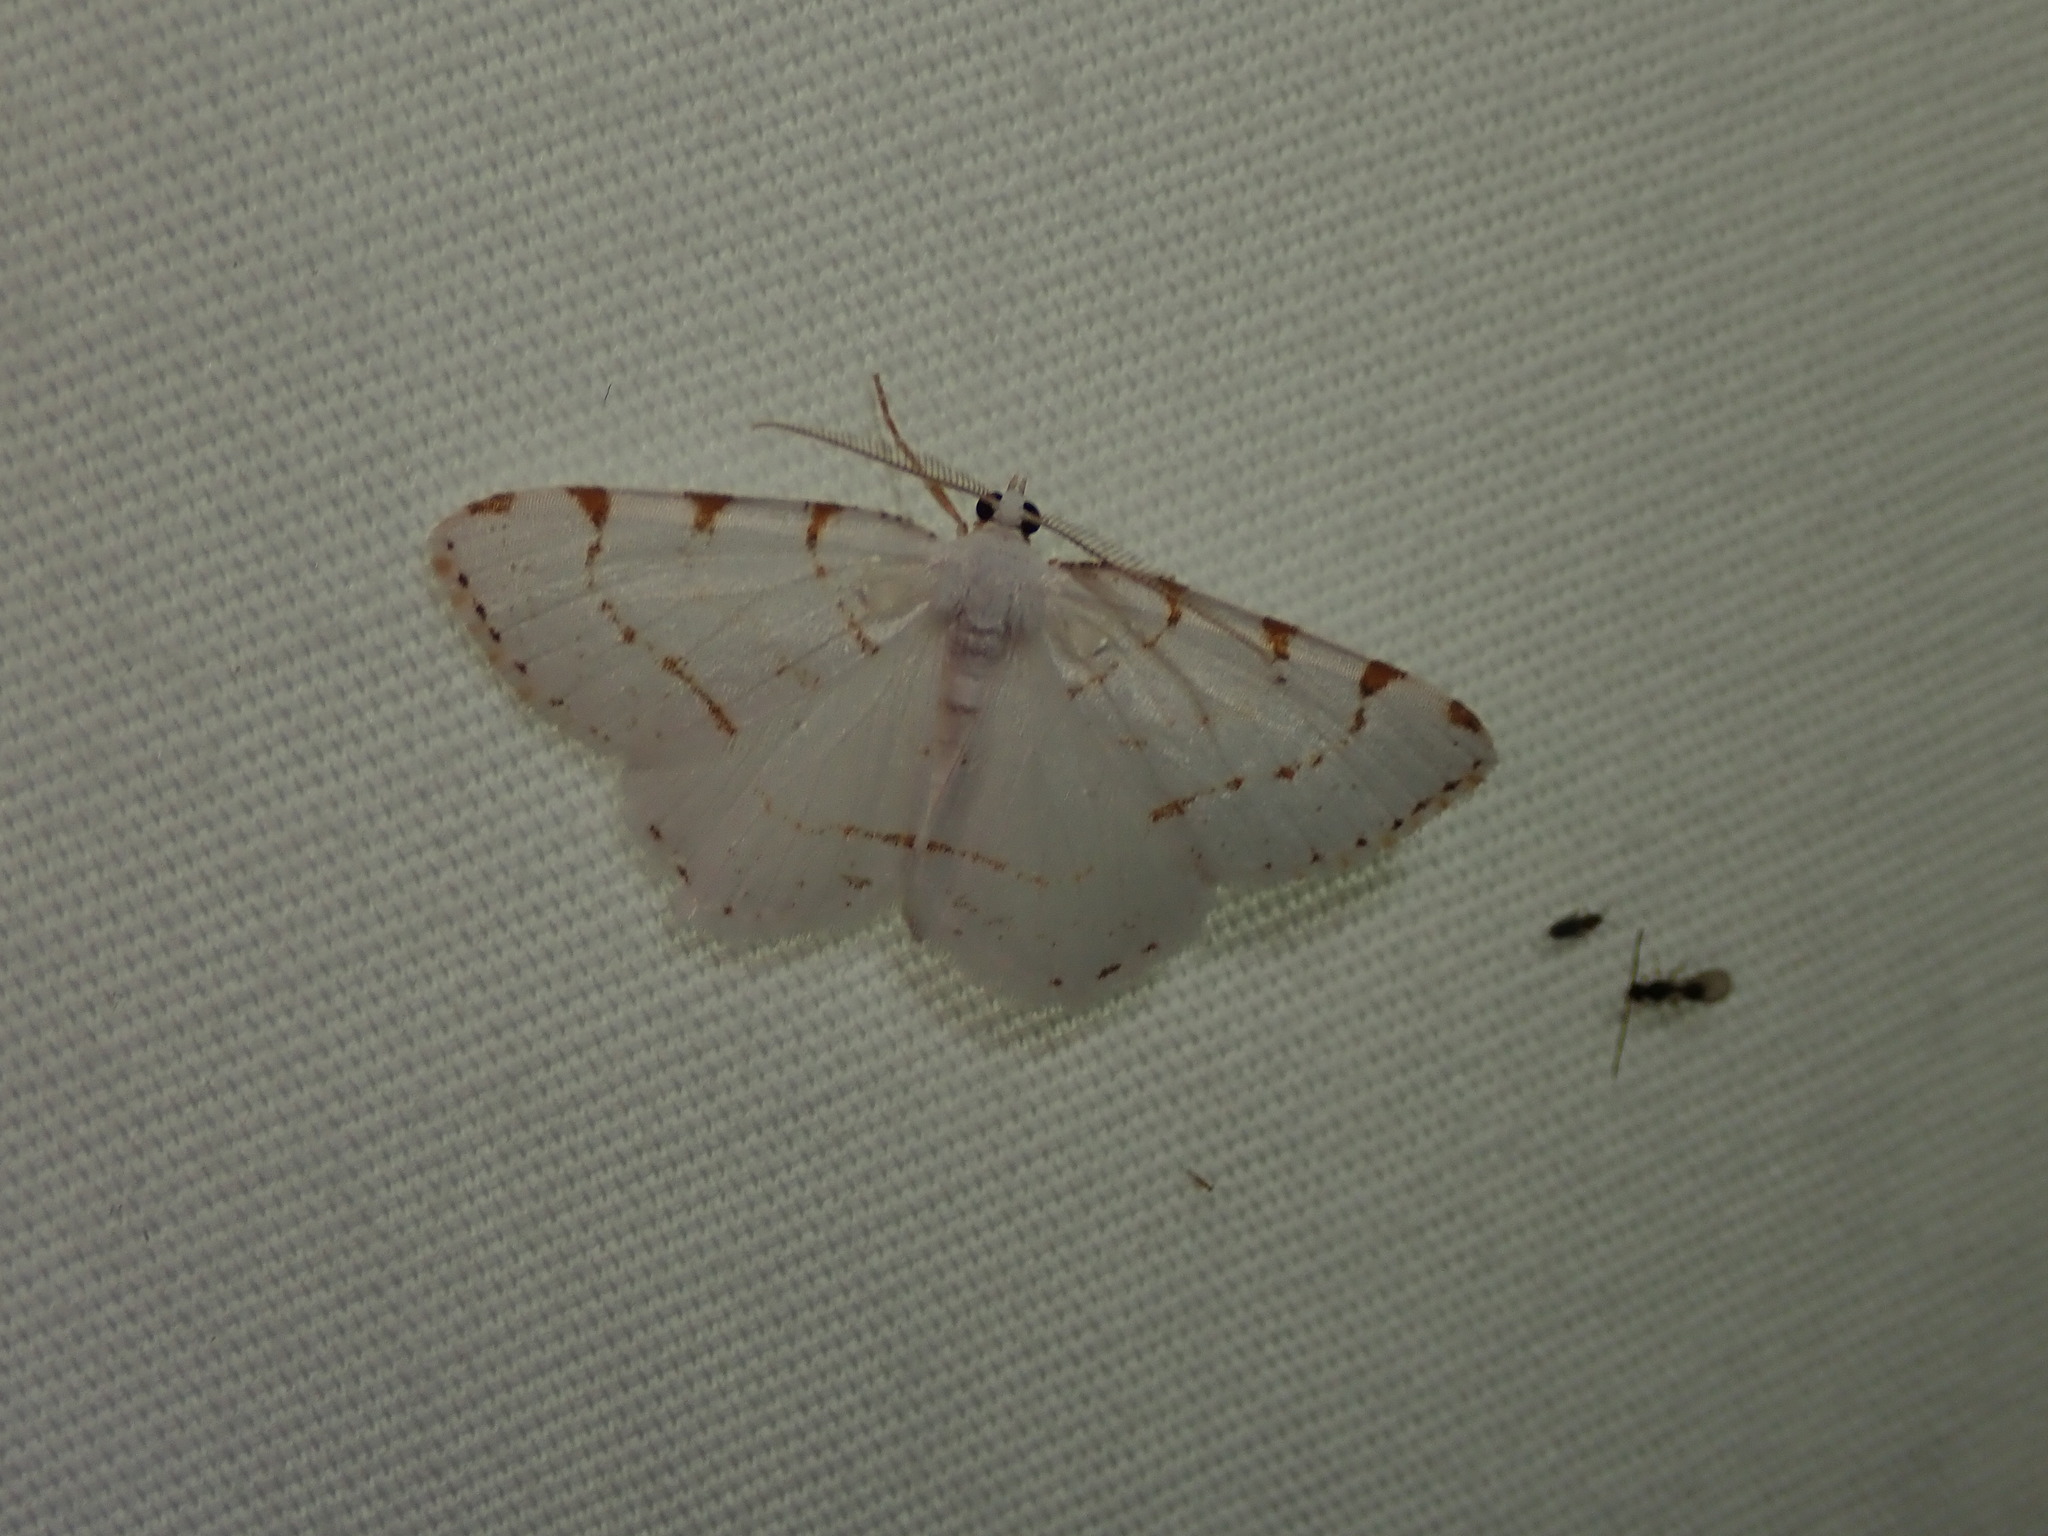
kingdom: Animalia
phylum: Arthropoda
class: Insecta
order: Lepidoptera
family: Geometridae
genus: Macaria
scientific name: Macaria pustularia
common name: Lesser maple spanworm moth
